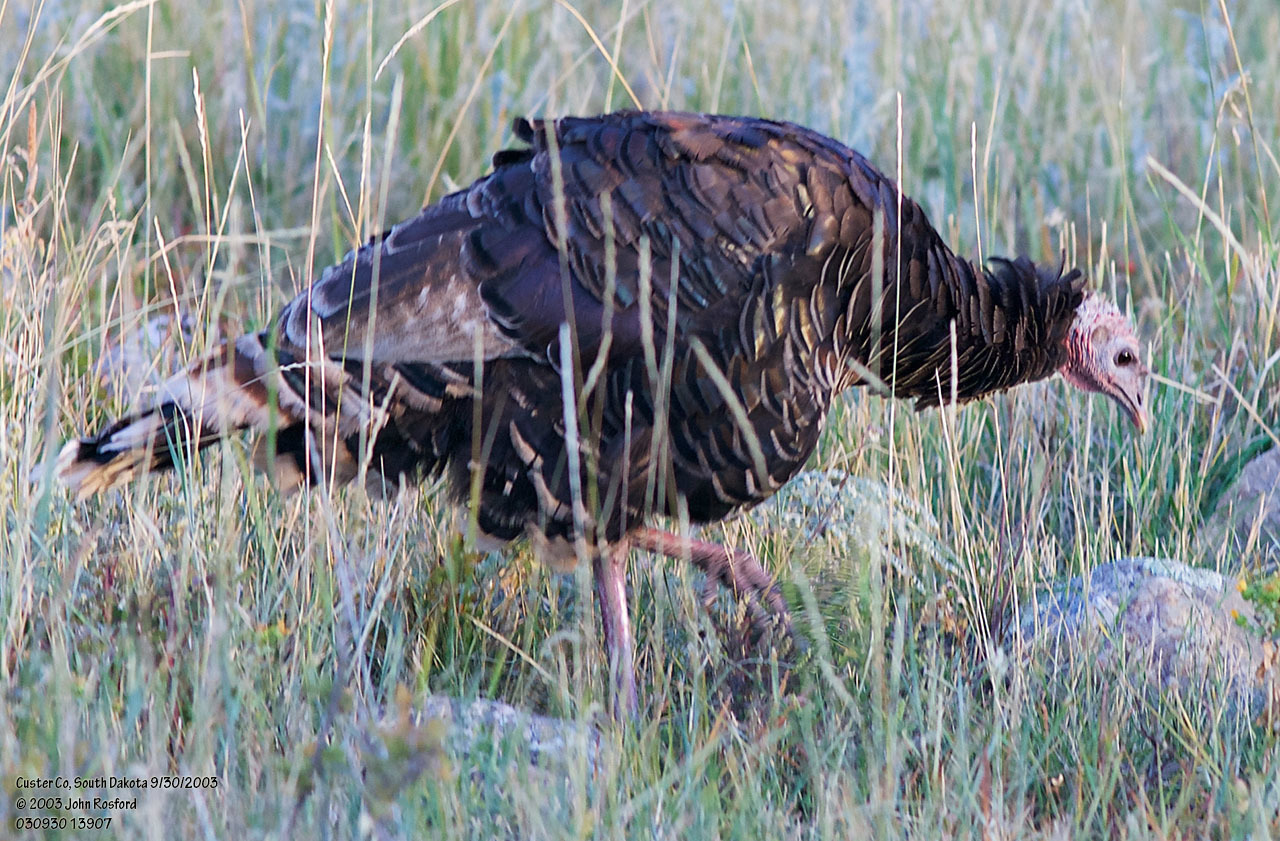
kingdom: Animalia
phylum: Chordata
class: Aves
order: Galliformes
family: Phasianidae
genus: Meleagris
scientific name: Meleagris gallopavo
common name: Wild turkey
